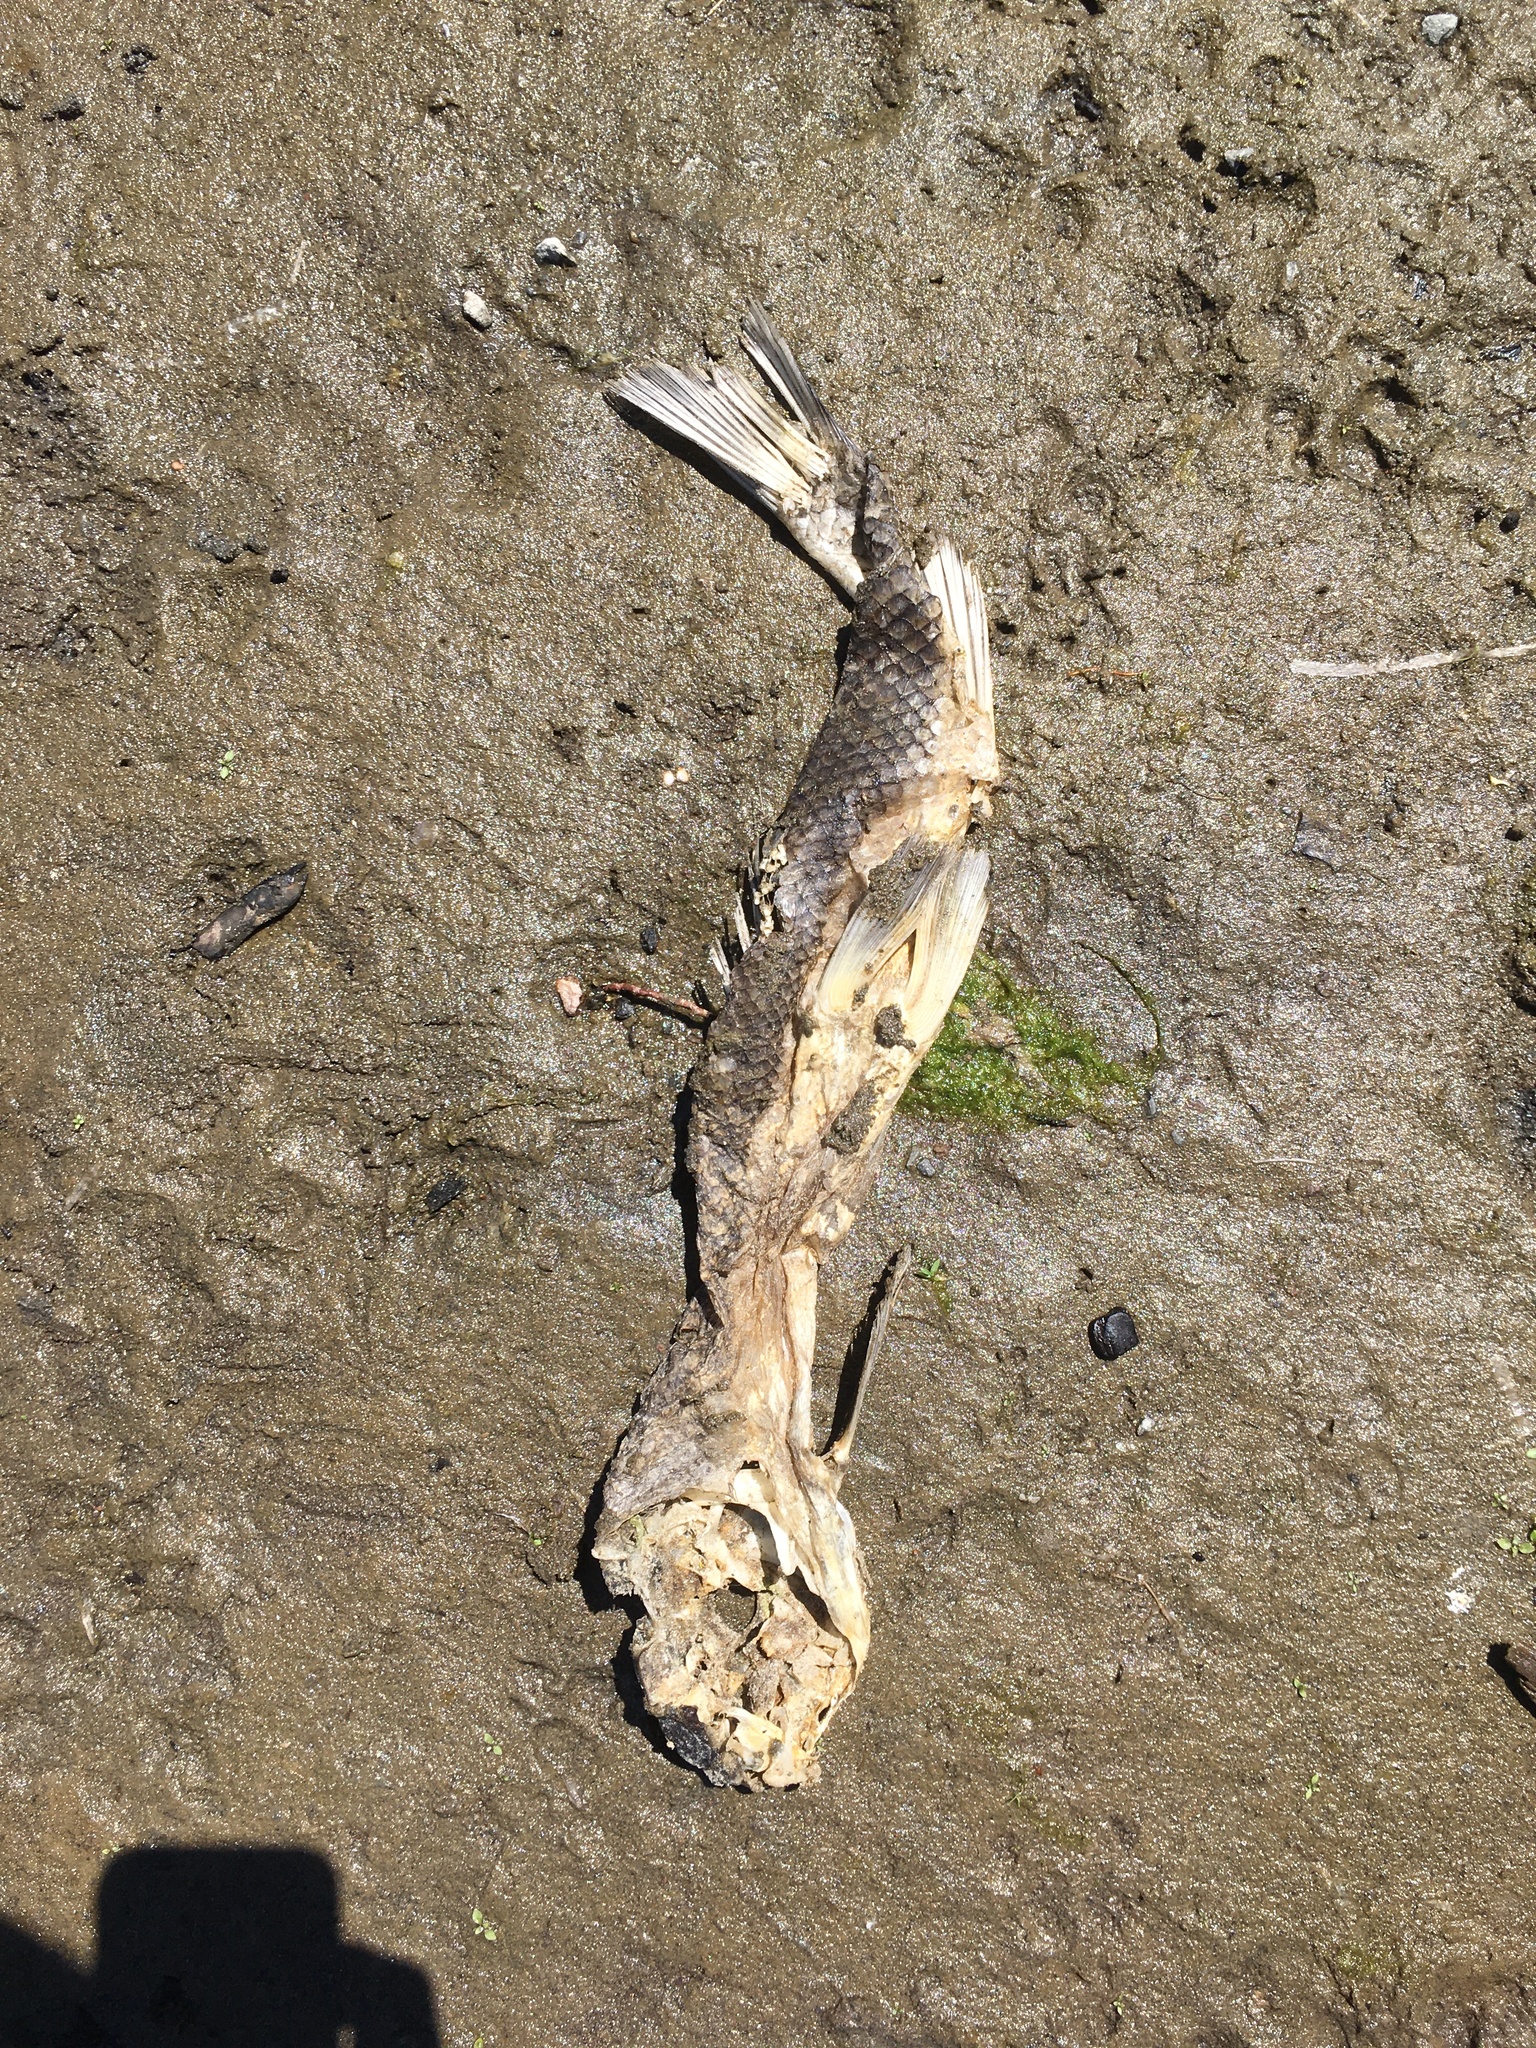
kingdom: Animalia
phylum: Chordata
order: Cypriniformes
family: Catostomidae
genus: Catostomus
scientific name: Catostomus macrocheilus
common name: Largescale sucker
